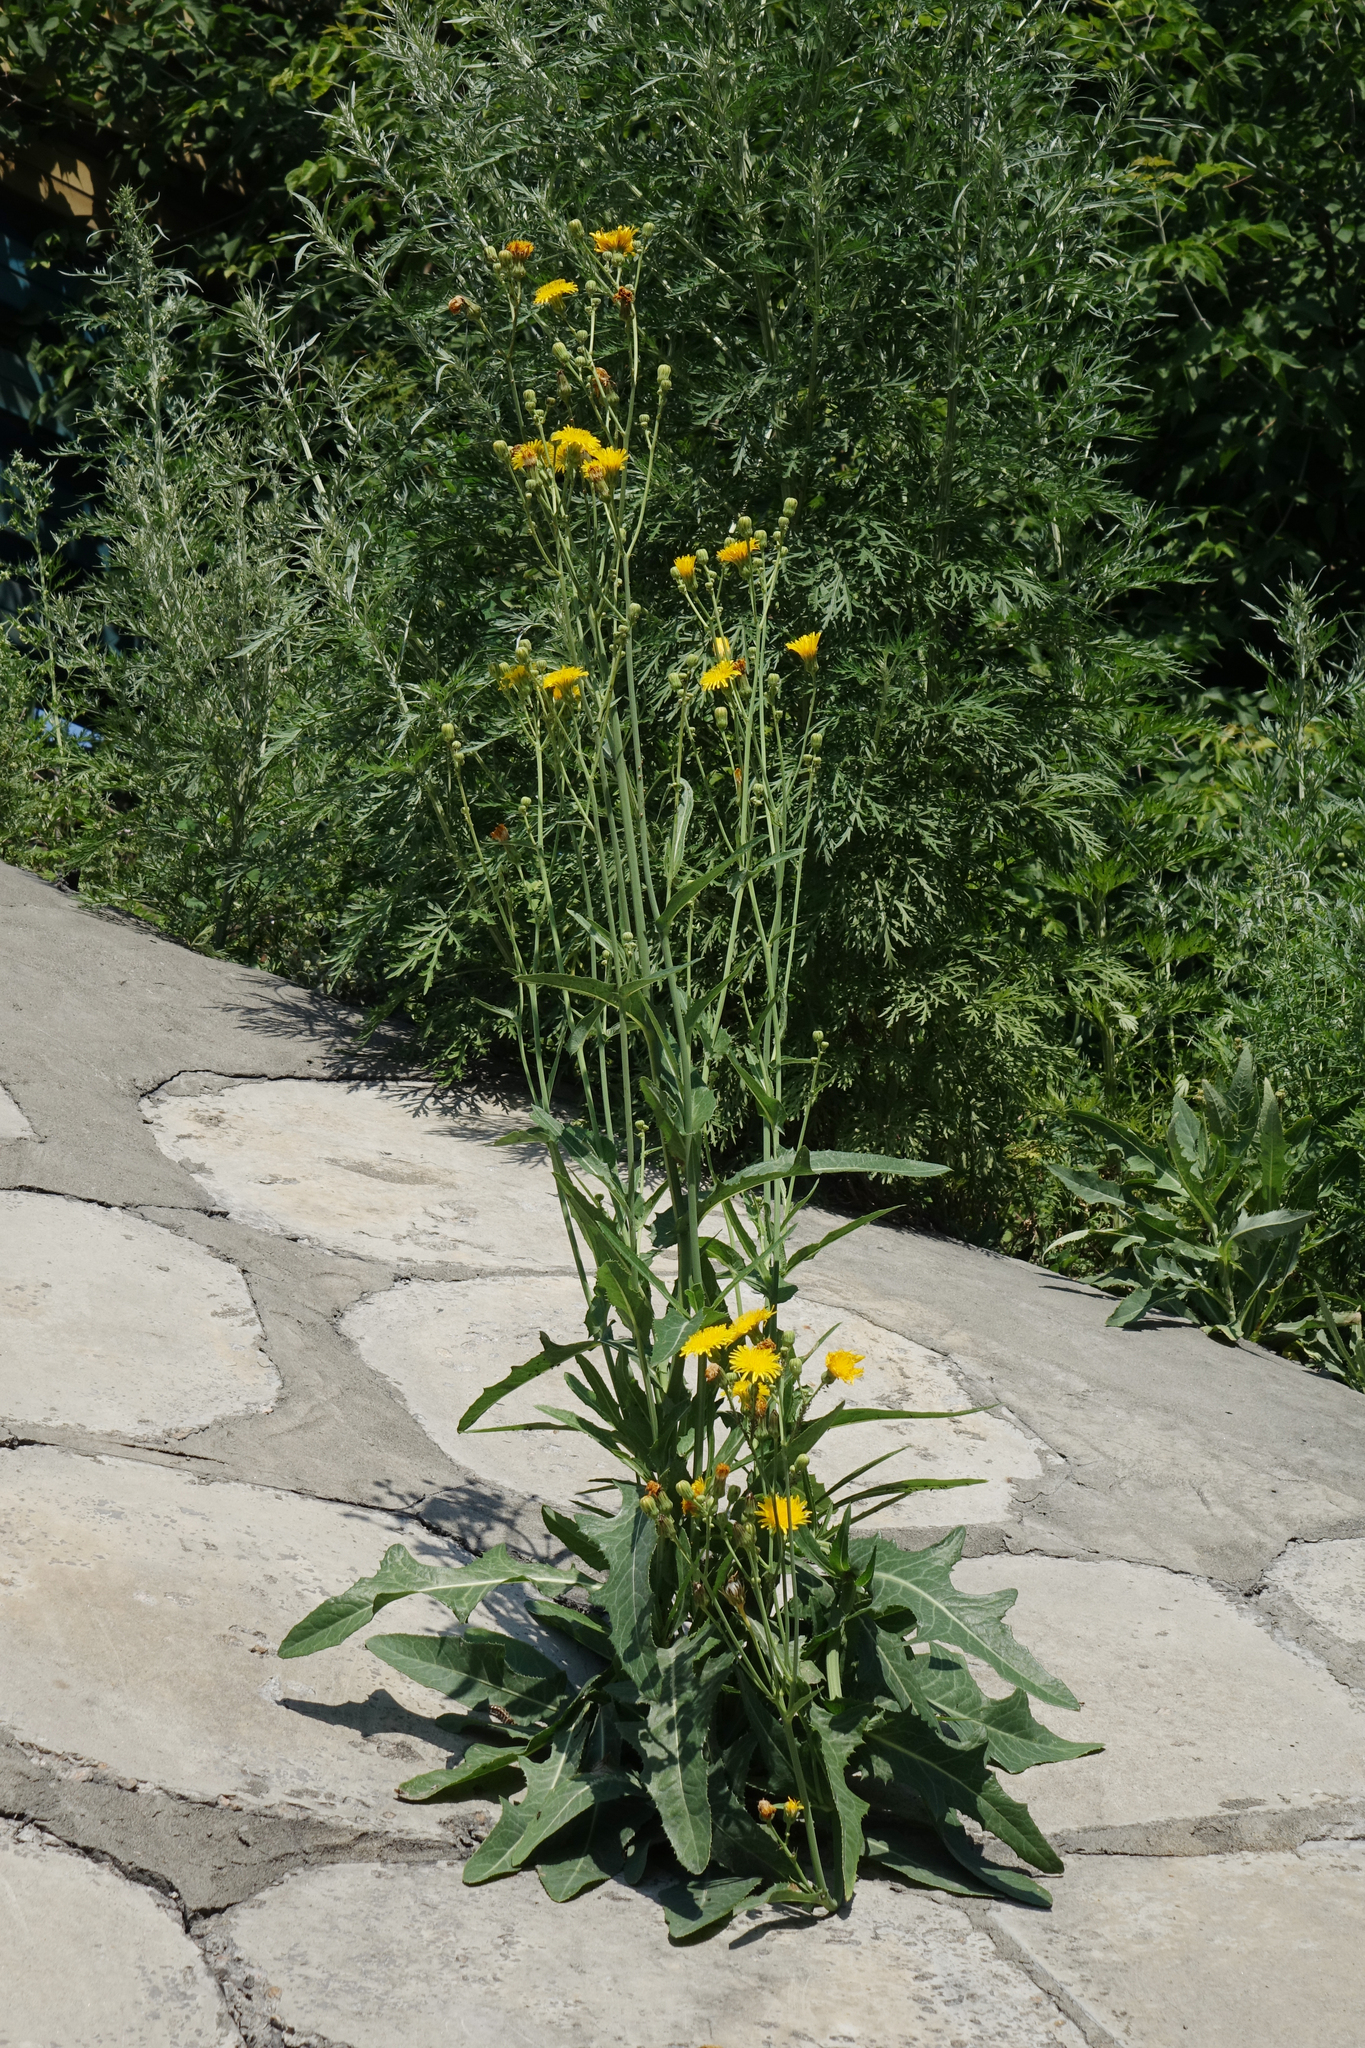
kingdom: Plantae
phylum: Tracheophyta
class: Magnoliopsida
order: Asterales
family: Asteraceae
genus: Sonchus
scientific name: Sonchus arvensis
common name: Perennial sow-thistle
